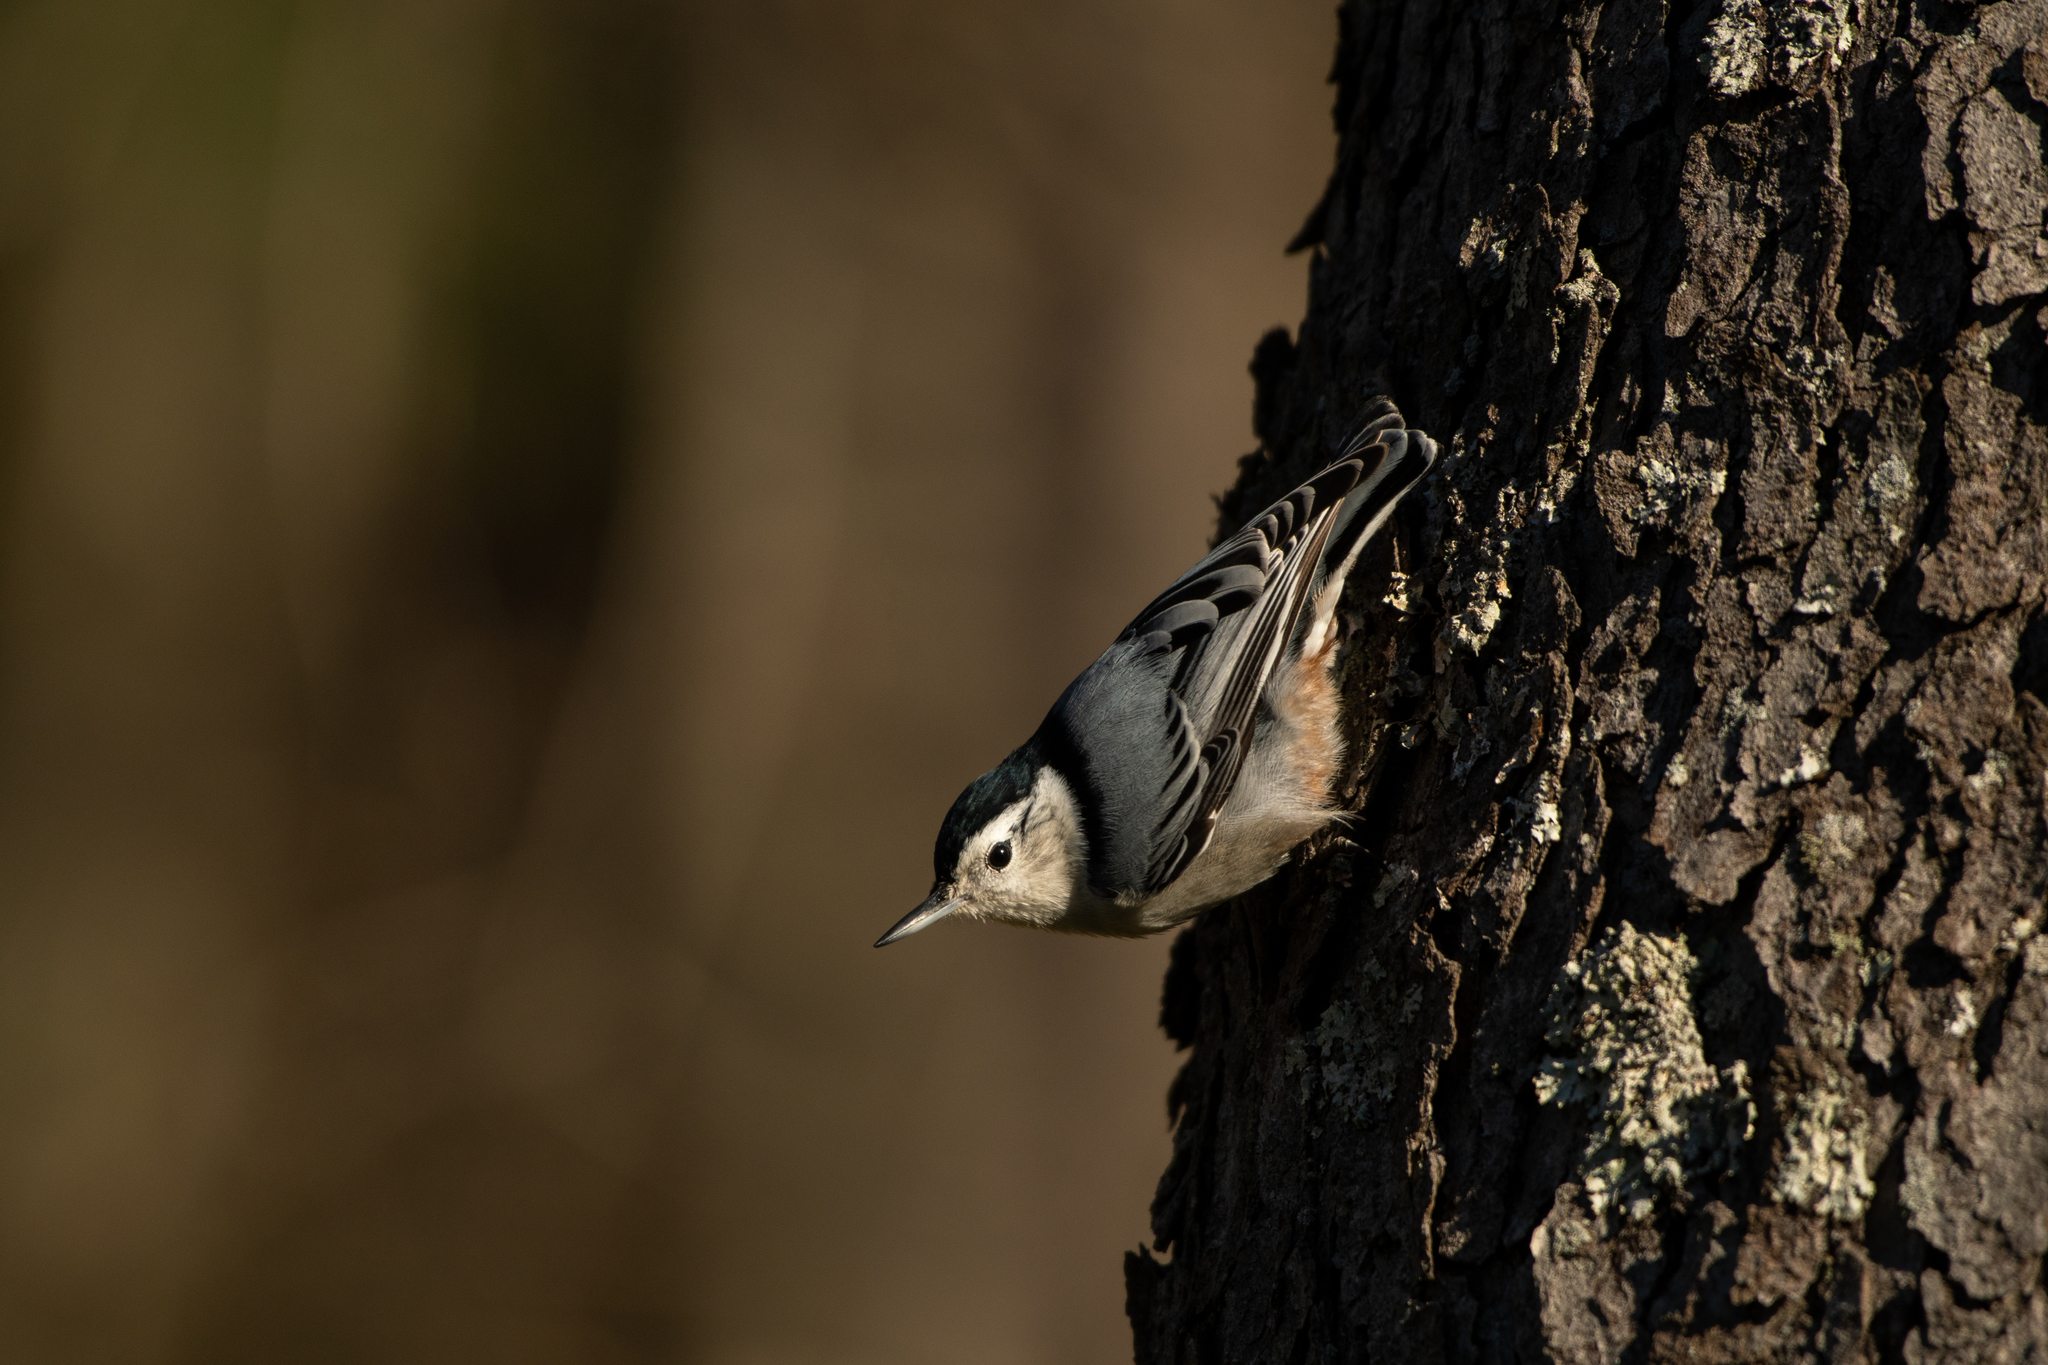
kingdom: Animalia
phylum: Chordata
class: Aves
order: Passeriformes
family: Sittidae
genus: Sitta
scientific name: Sitta carolinensis
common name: White-breasted nuthatch
